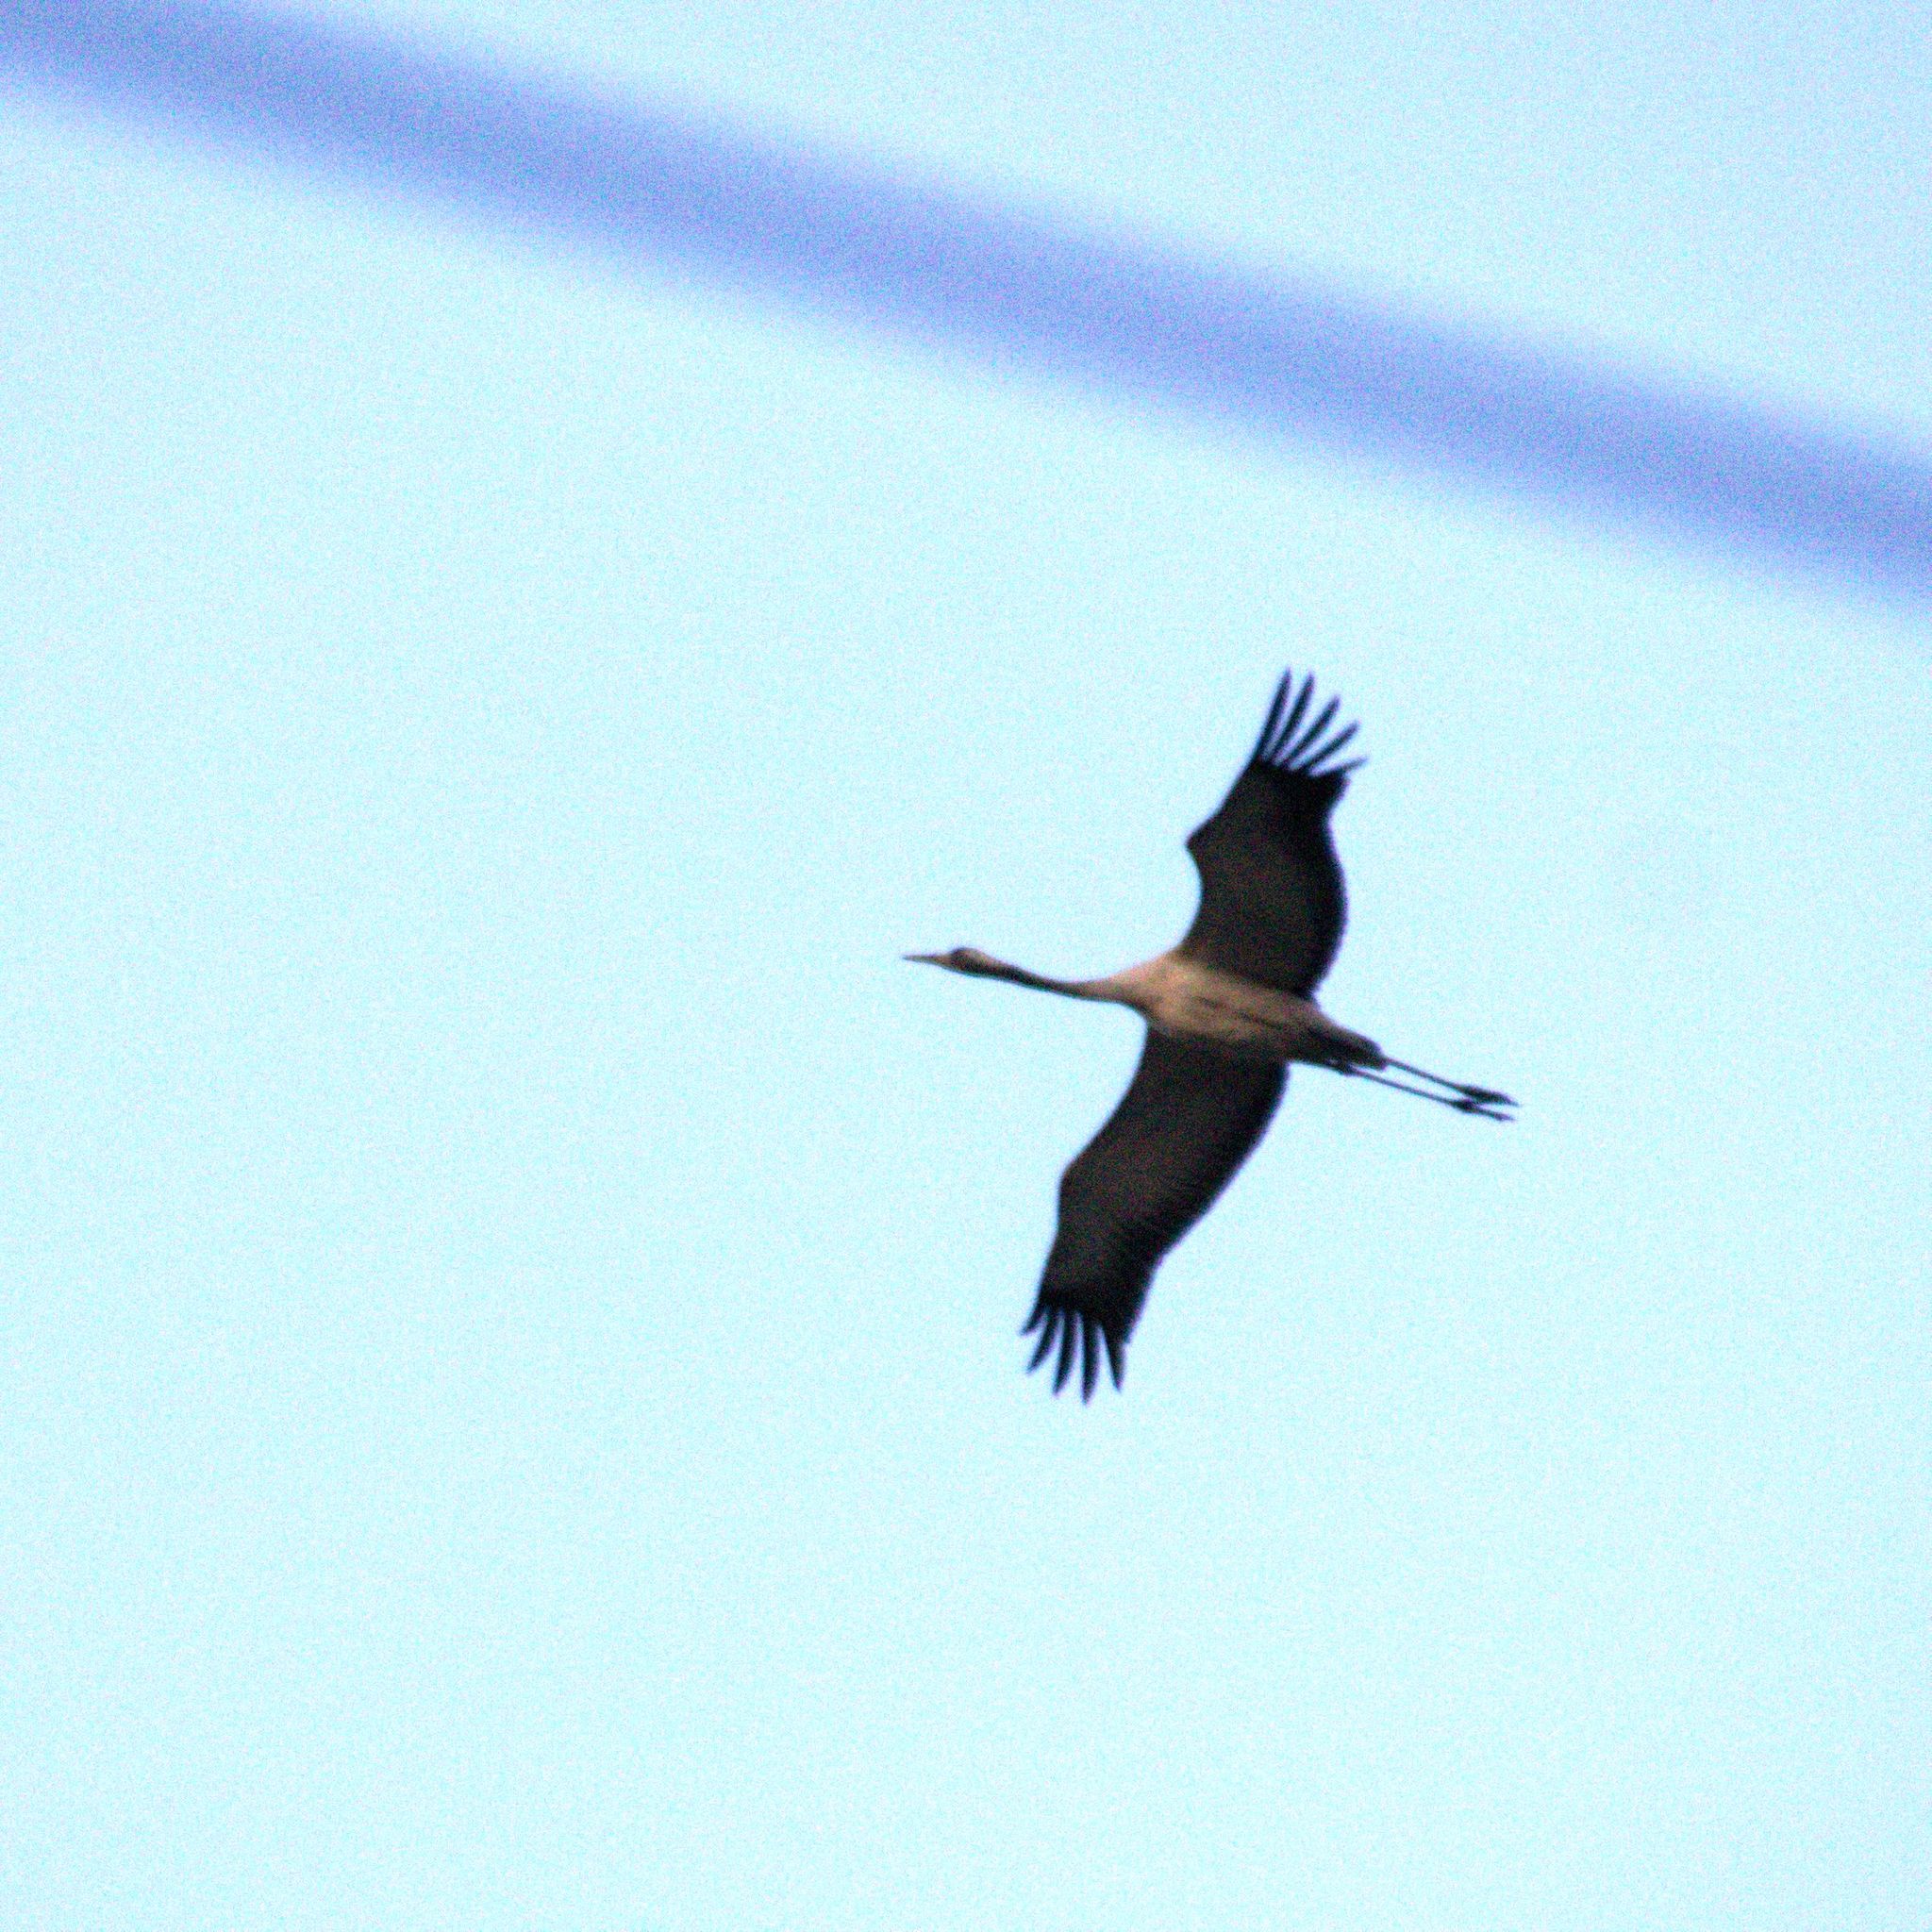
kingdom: Animalia
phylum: Chordata
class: Aves
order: Gruiformes
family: Gruidae
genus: Grus
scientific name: Grus grus
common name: Common crane
